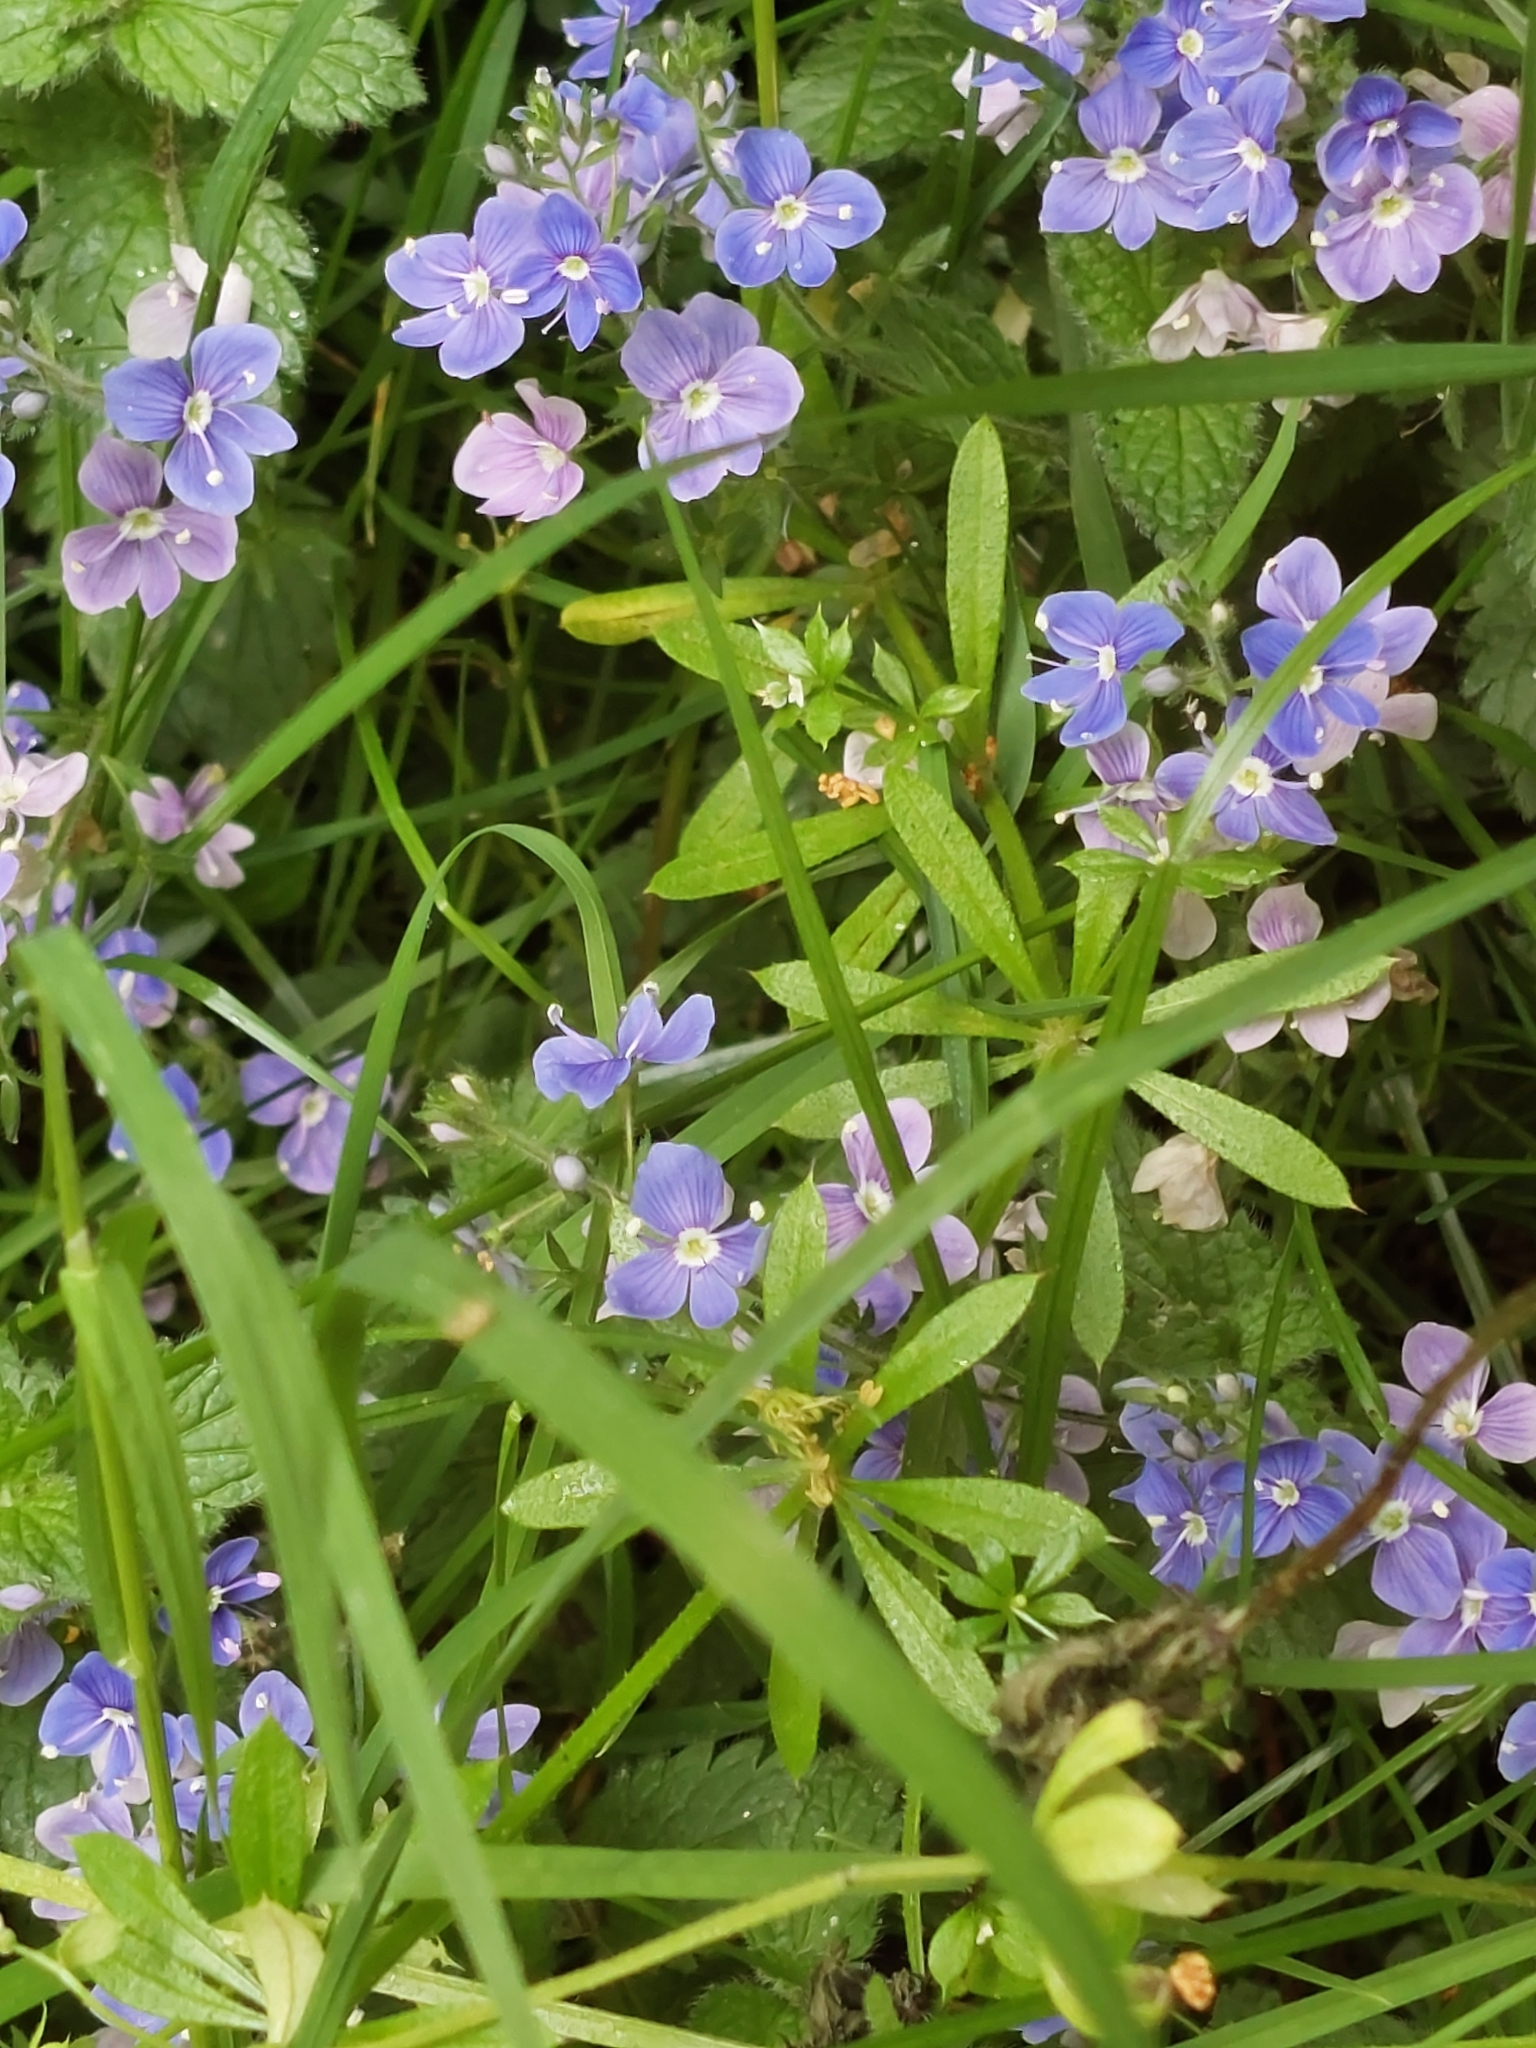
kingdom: Plantae
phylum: Tracheophyta
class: Magnoliopsida
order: Lamiales
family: Plantaginaceae
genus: Veronica
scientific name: Veronica chamaedrys
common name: Germander speedwell
